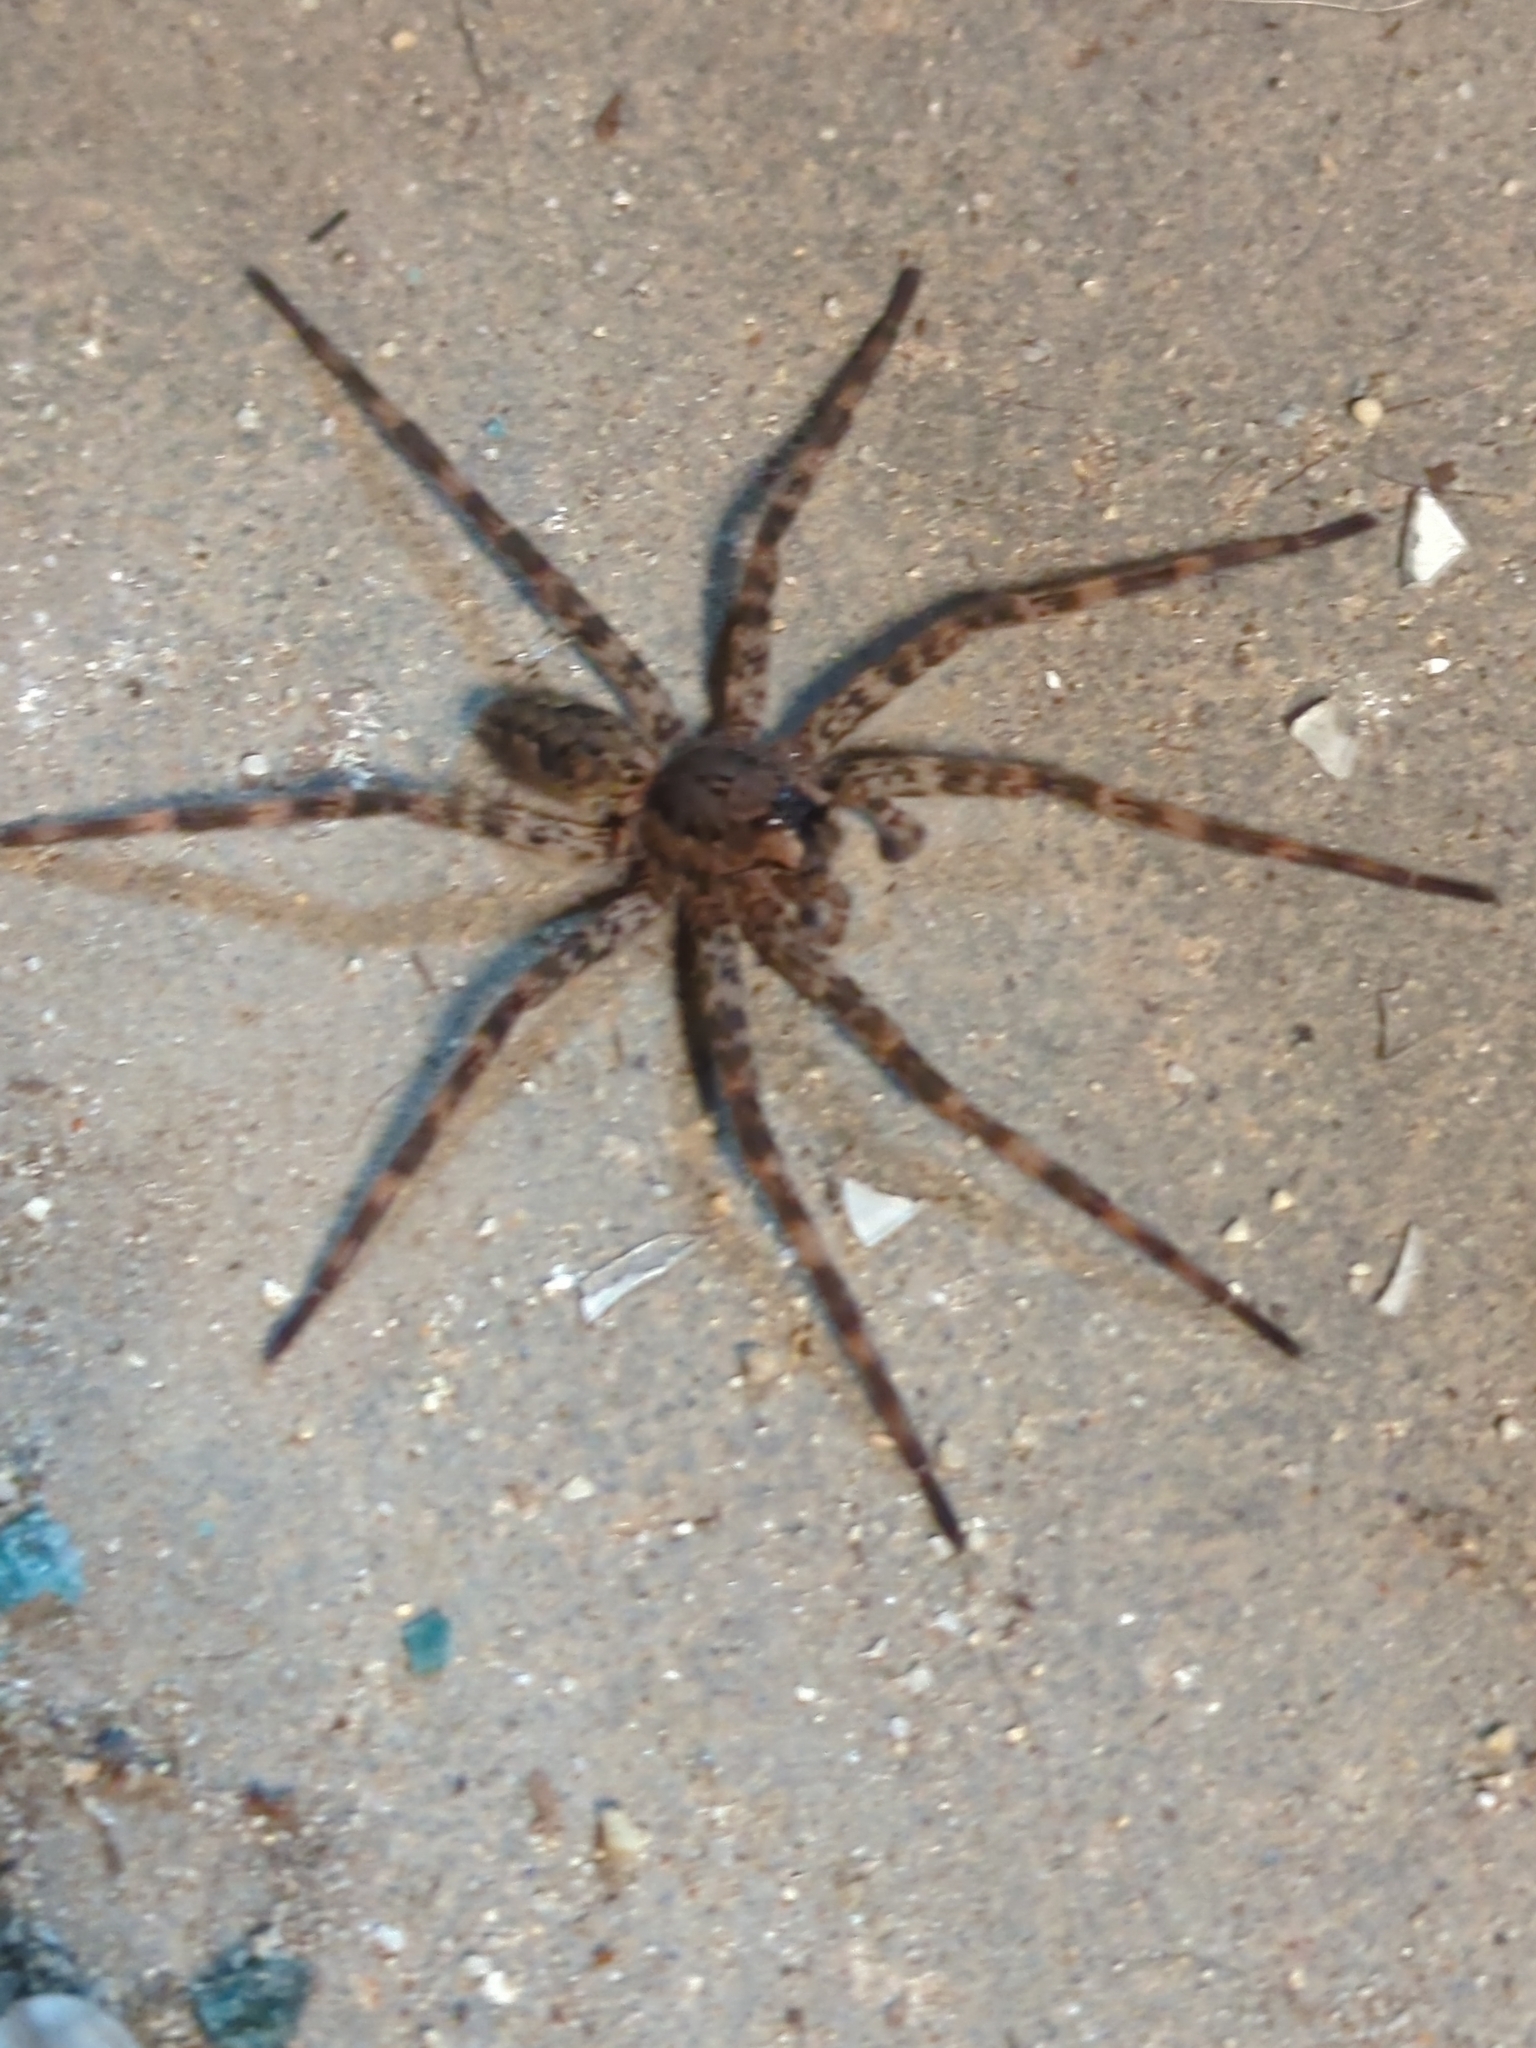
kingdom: Animalia
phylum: Arthropoda
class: Arachnida
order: Araneae
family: Pisauridae
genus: Dolomedes
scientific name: Dolomedes tenebrosus
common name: Dark fishing spider
